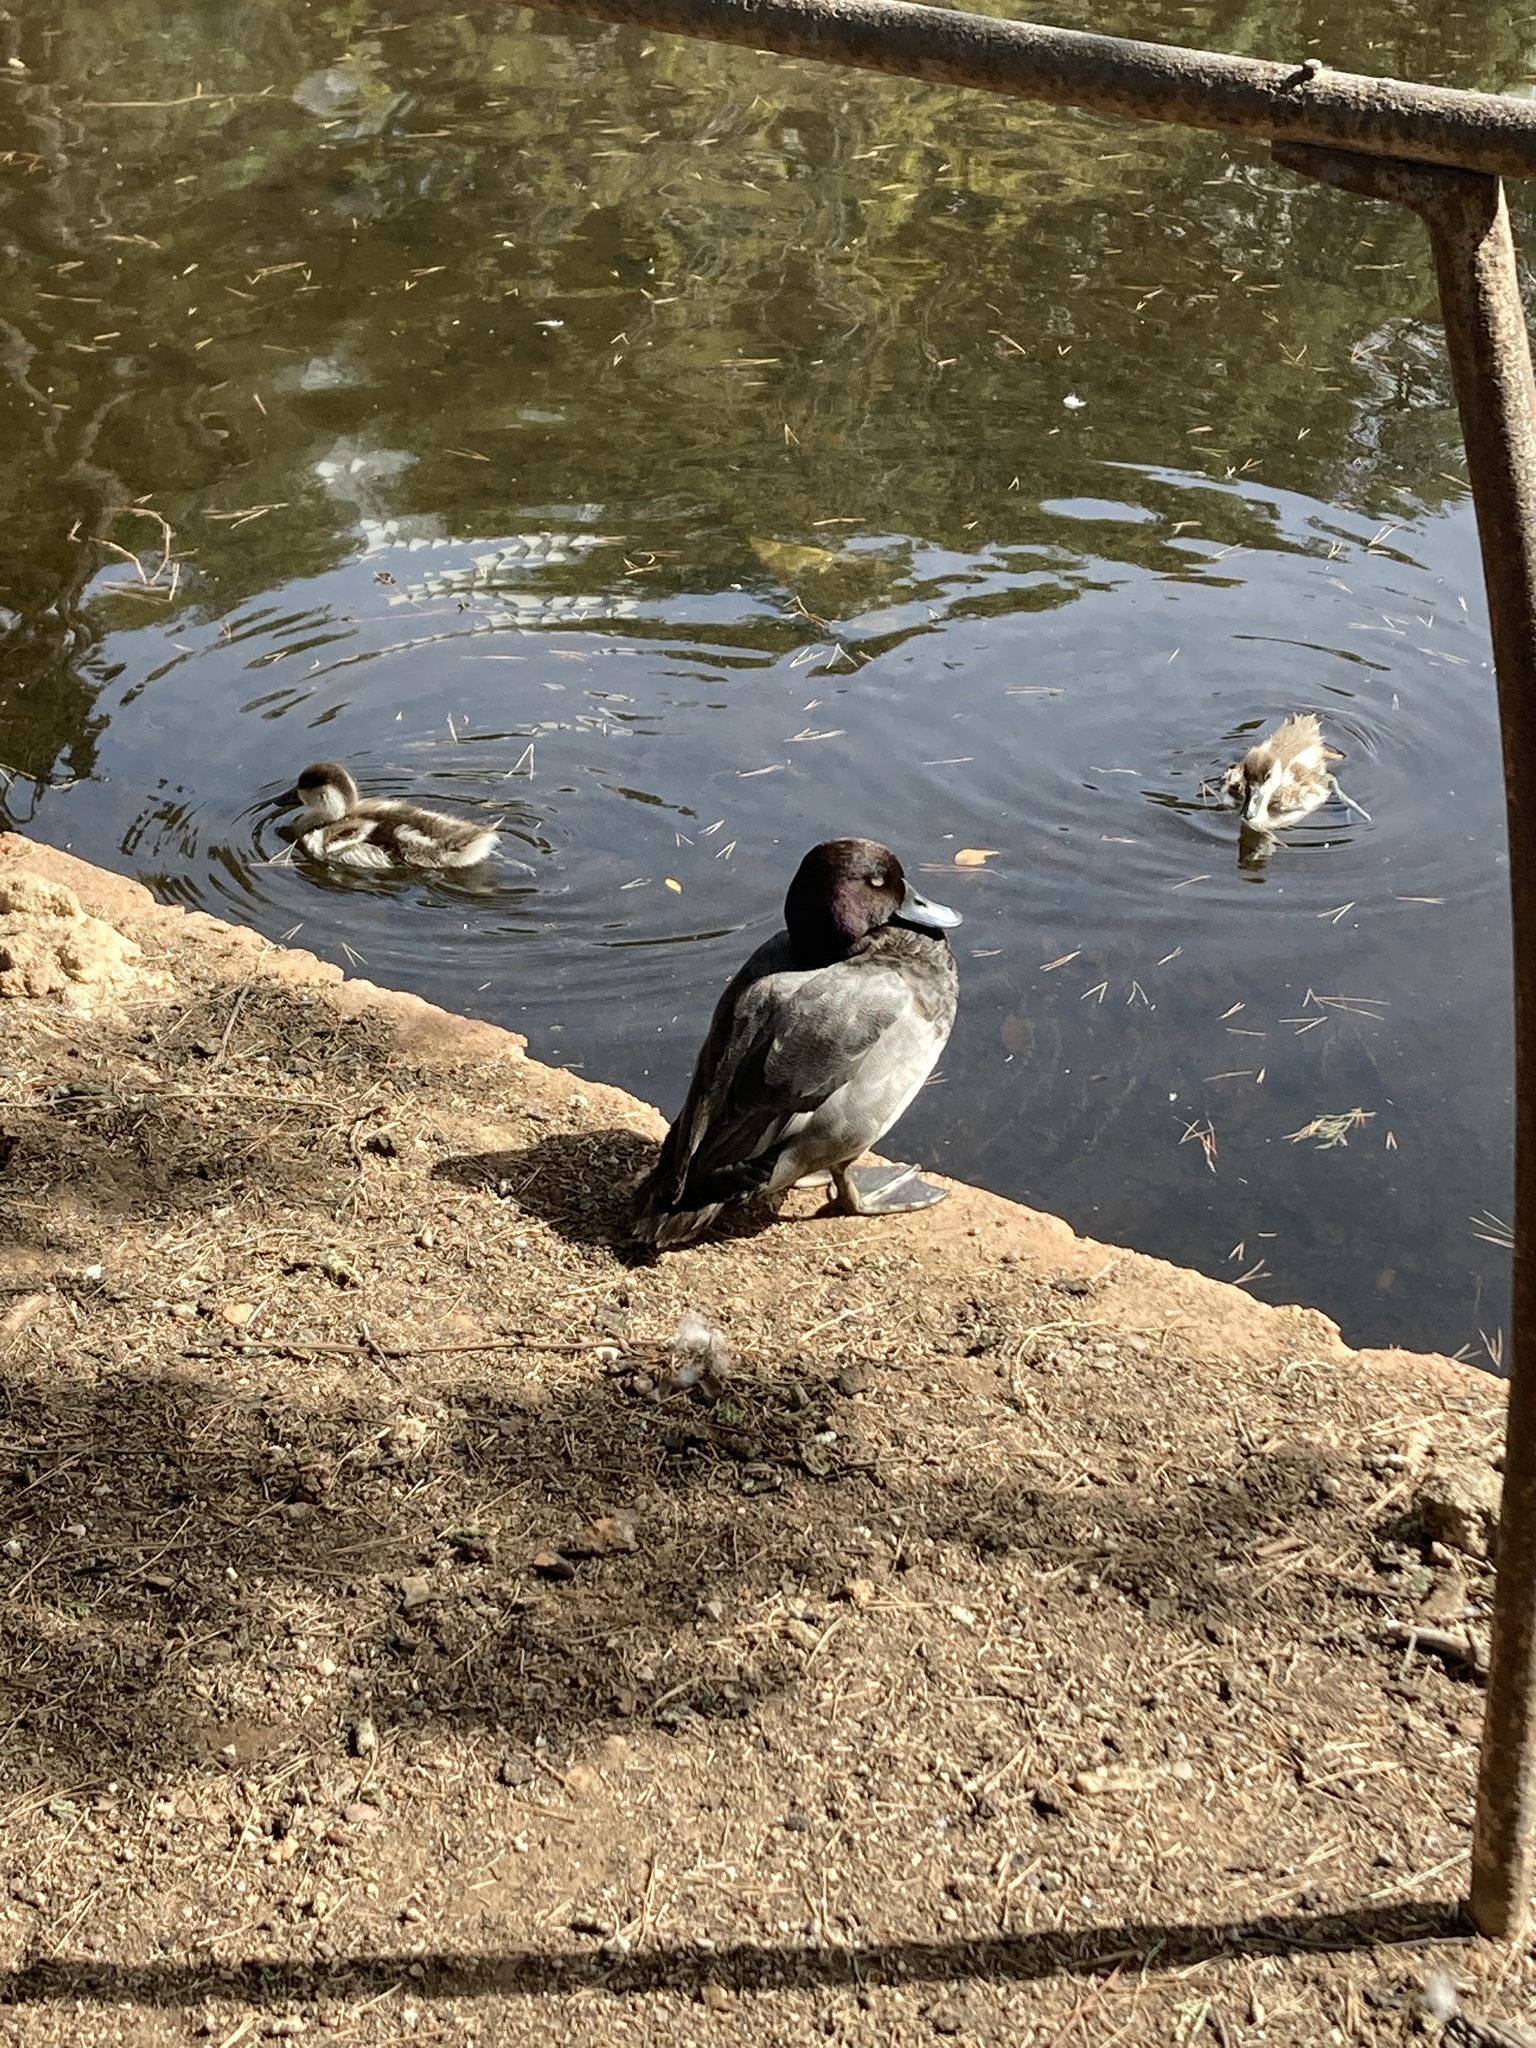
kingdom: Animalia
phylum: Chordata
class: Aves
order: Anseriformes
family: Anatidae
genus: Aythya
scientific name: Aythya
